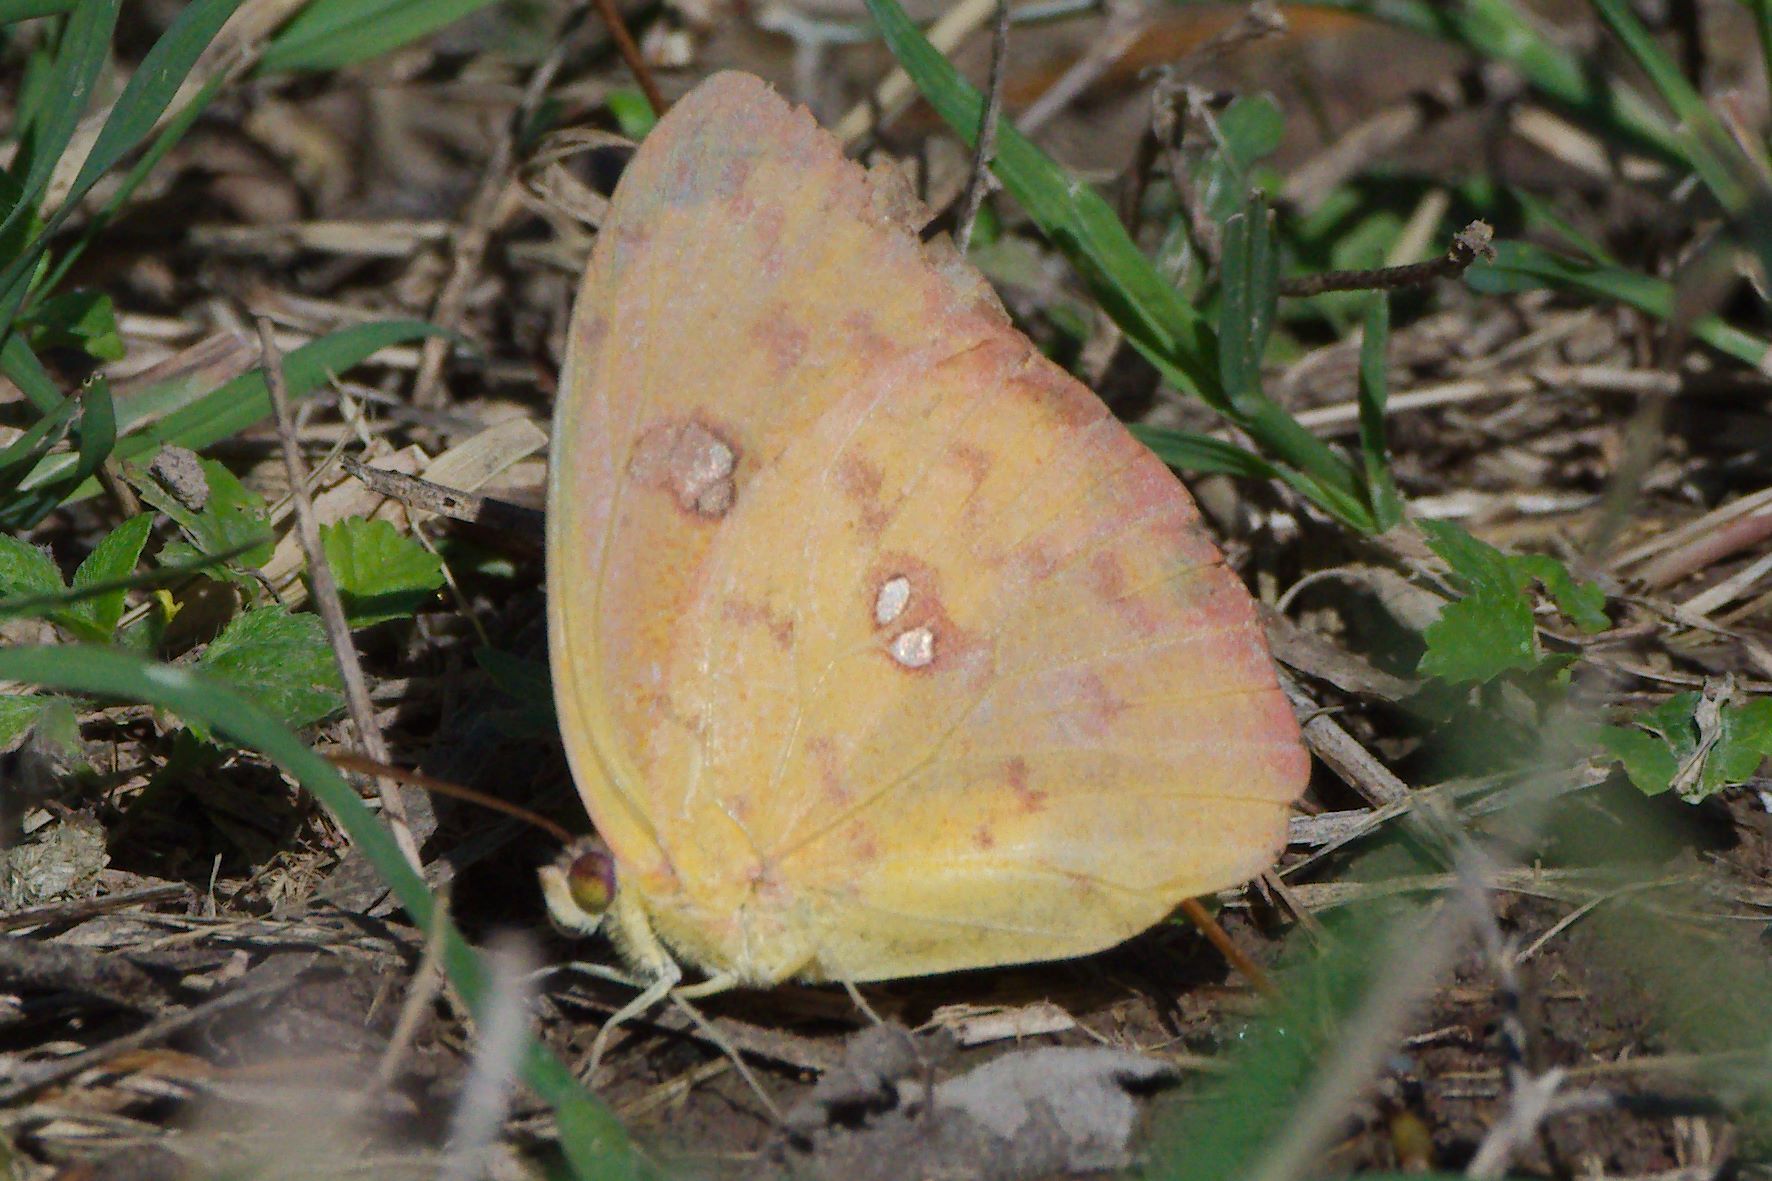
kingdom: Animalia
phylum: Arthropoda
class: Insecta
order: Lepidoptera
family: Pieridae
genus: Phoebis
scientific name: Phoebis philea
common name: Orange-barred giant sulphur
